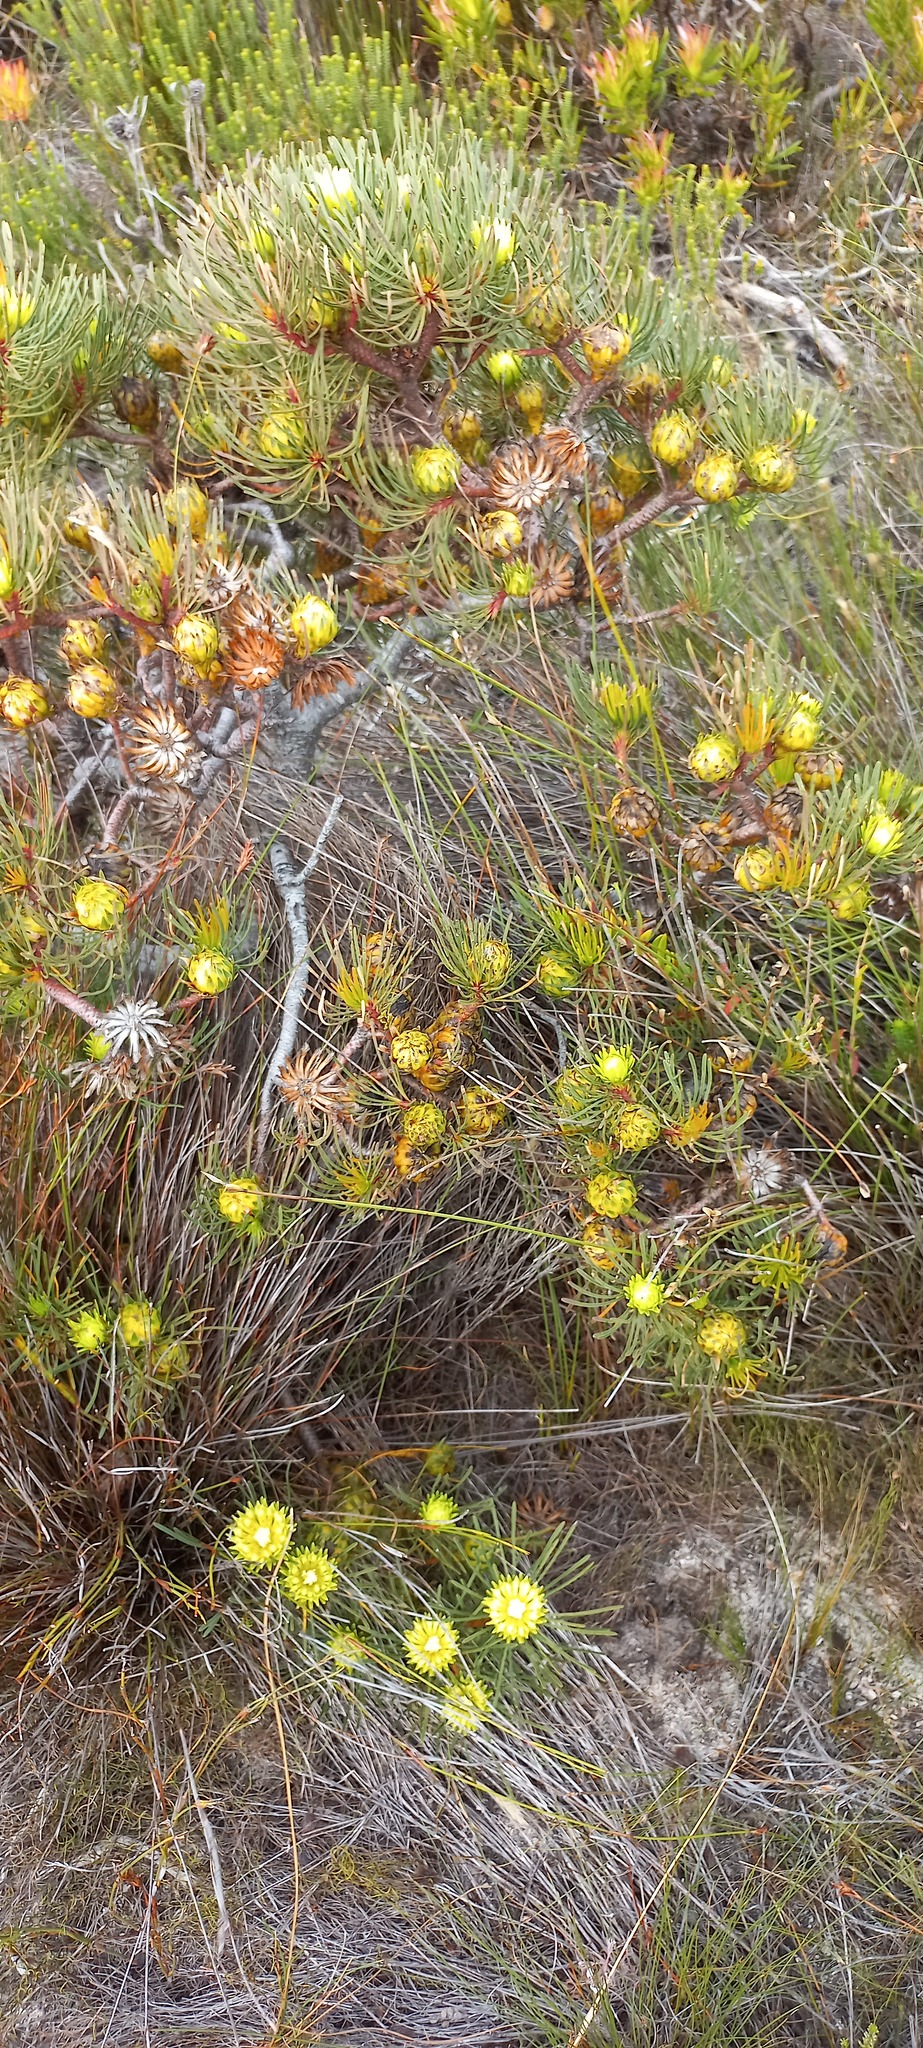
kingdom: Plantae
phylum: Tracheophyta
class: Magnoliopsida
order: Proteales
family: Proteaceae
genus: Aulax
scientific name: Aulax cancellata
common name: Channel-leaf featherbush
